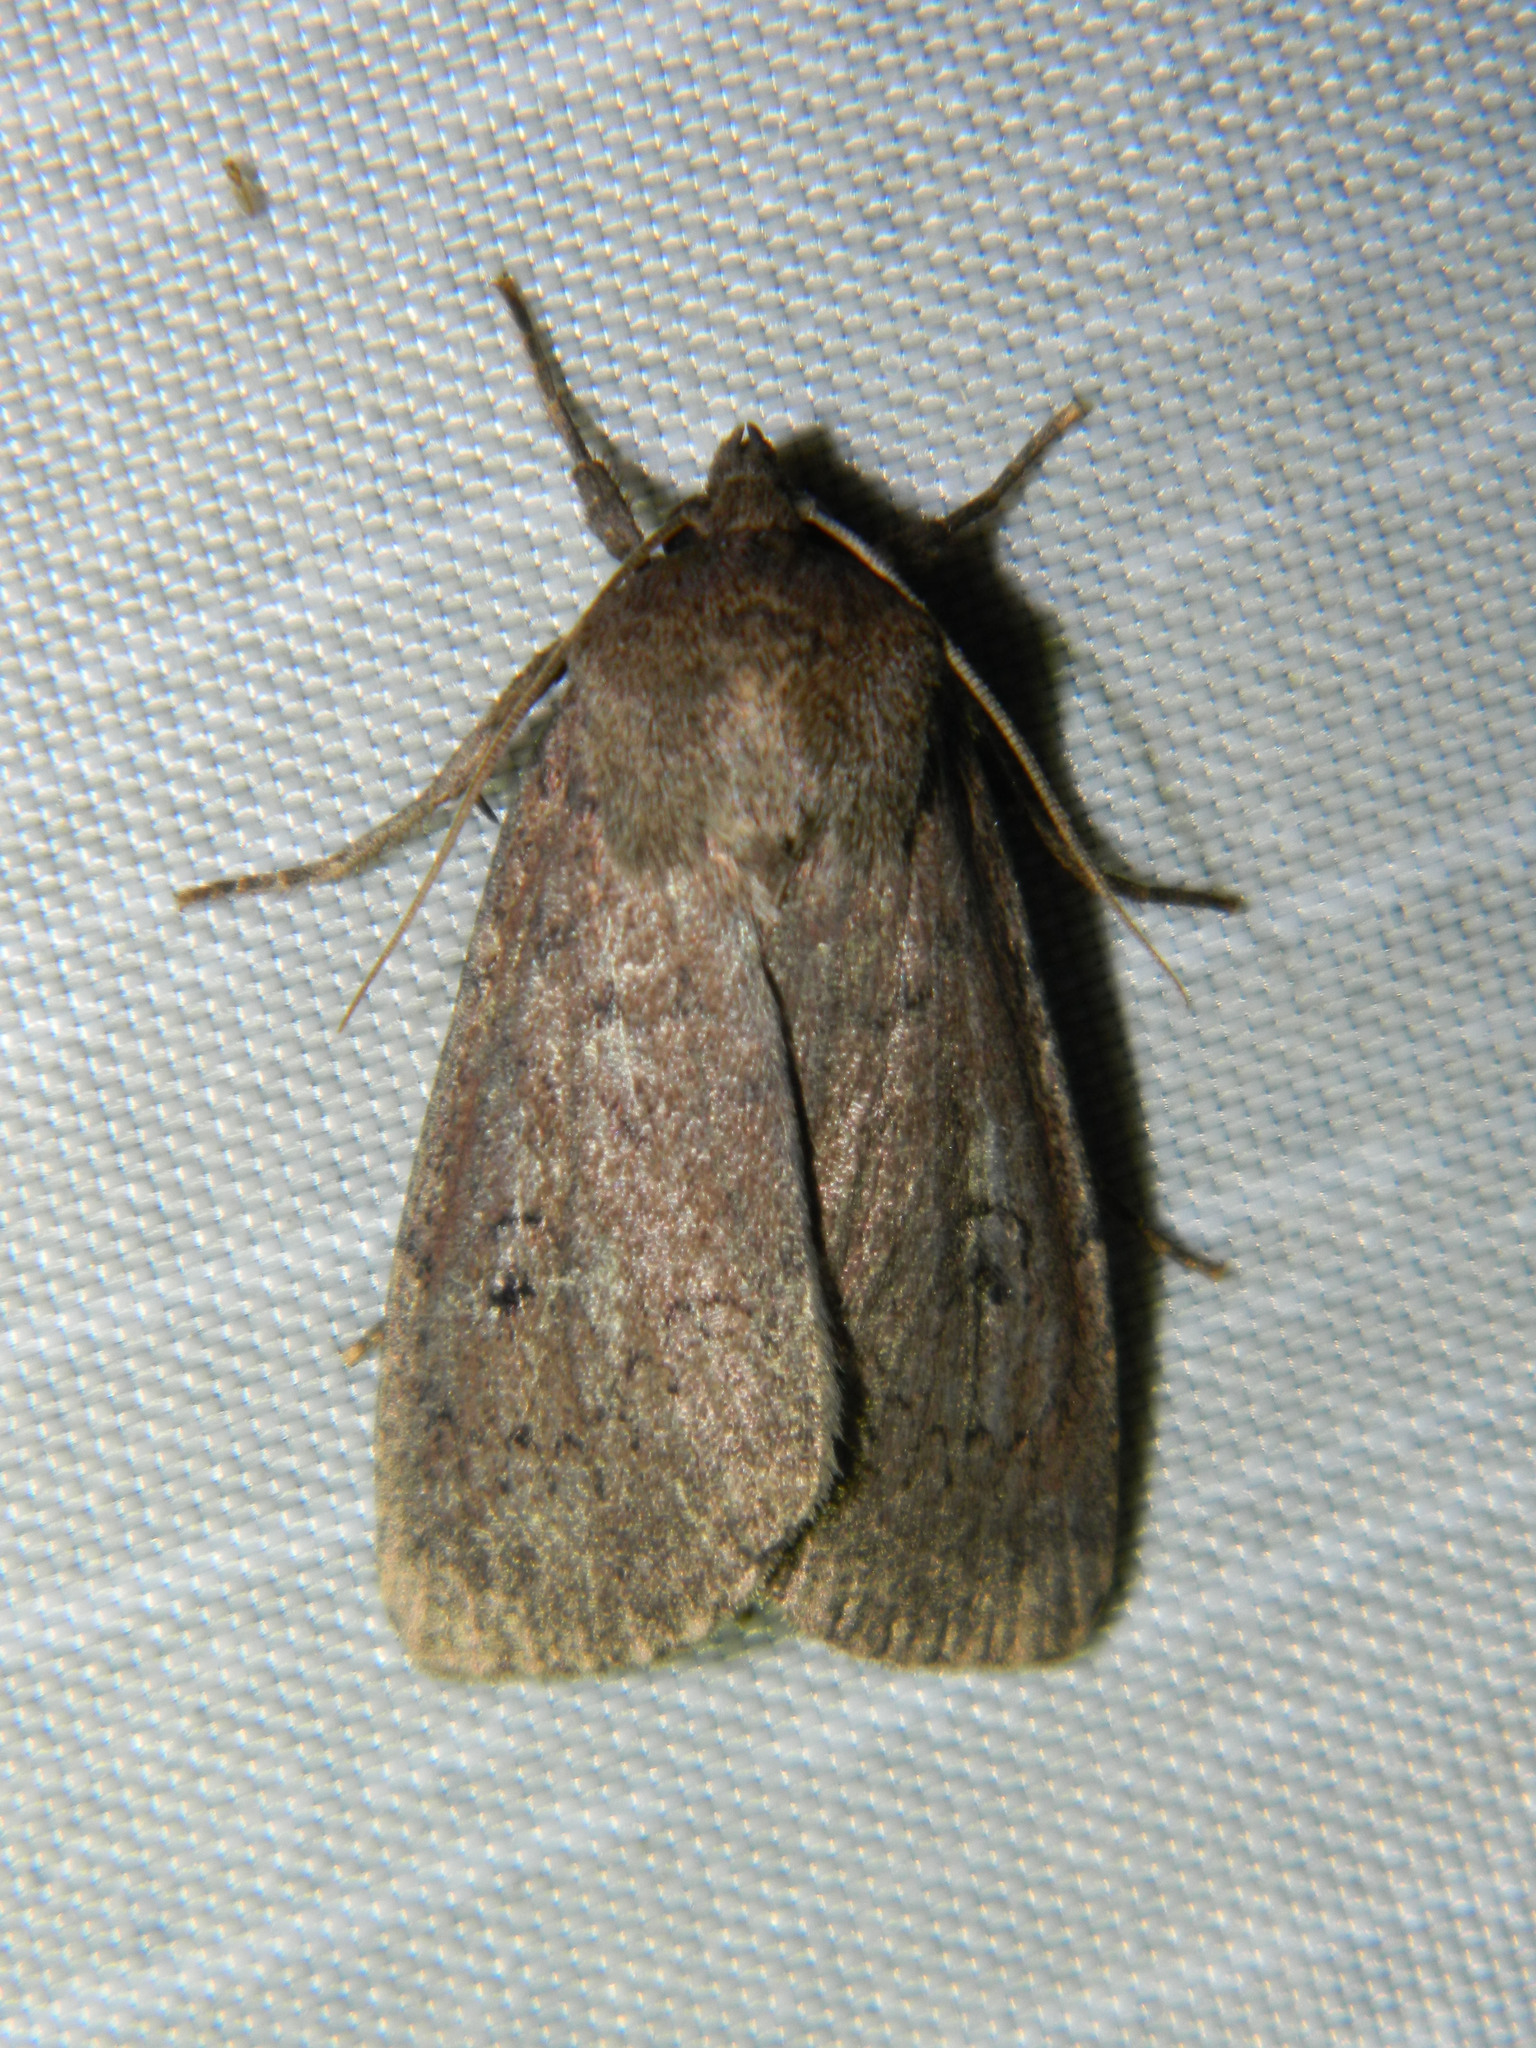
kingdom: Animalia
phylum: Arthropoda
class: Insecta
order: Lepidoptera
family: Noctuidae
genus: Graphiphora
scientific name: Graphiphora augur
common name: Double dart
